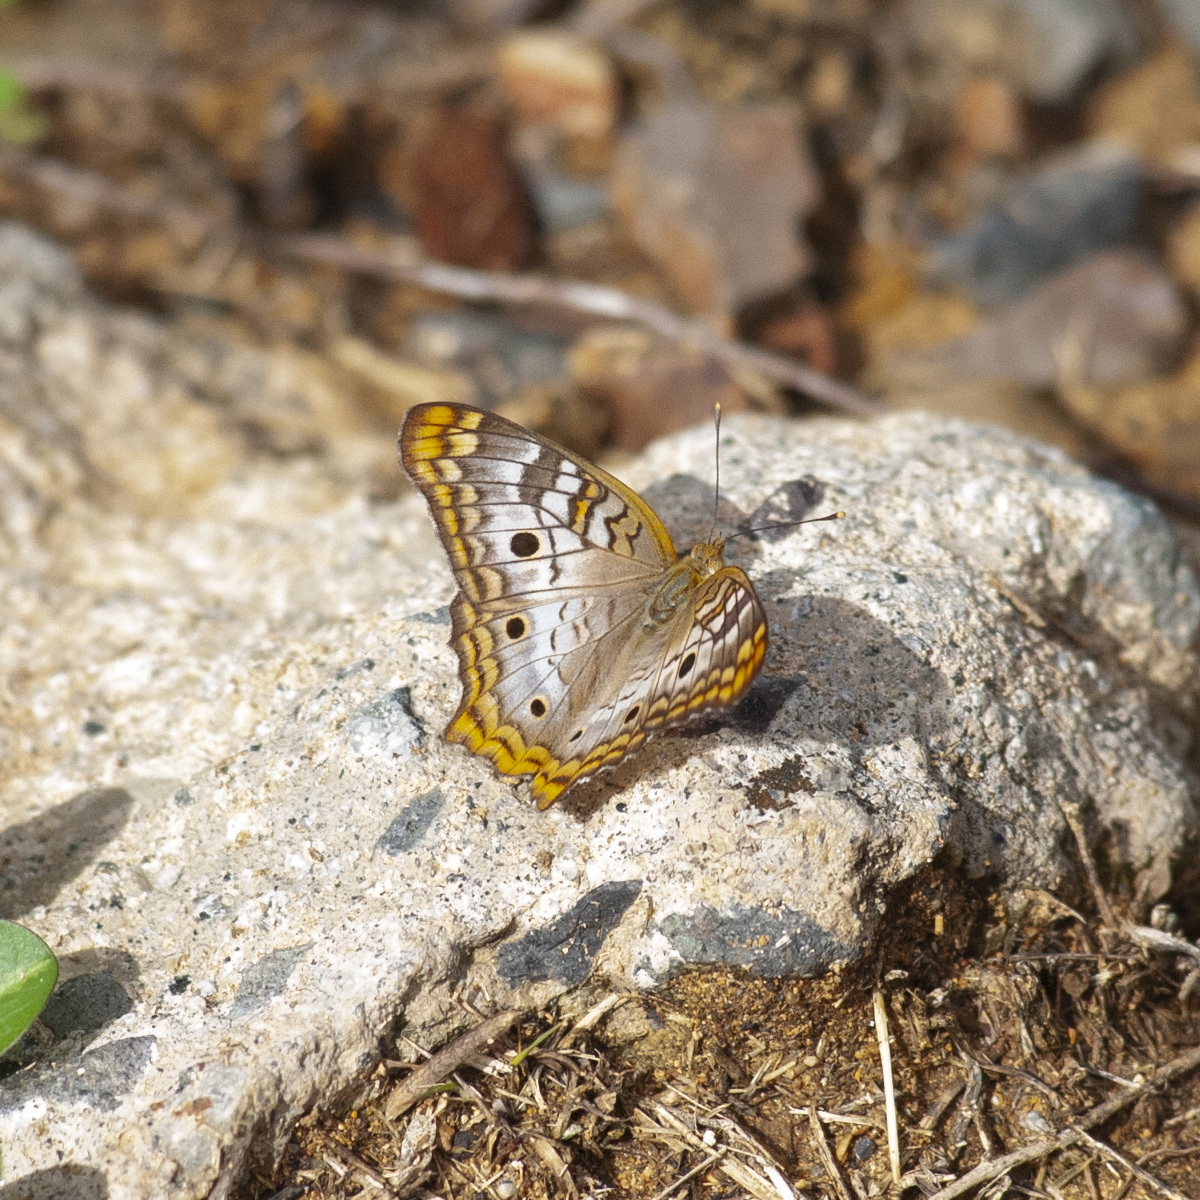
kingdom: Animalia
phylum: Arthropoda
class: Insecta
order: Lepidoptera
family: Nymphalidae
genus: Anartia
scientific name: Anartia jatrophae
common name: White peacock
